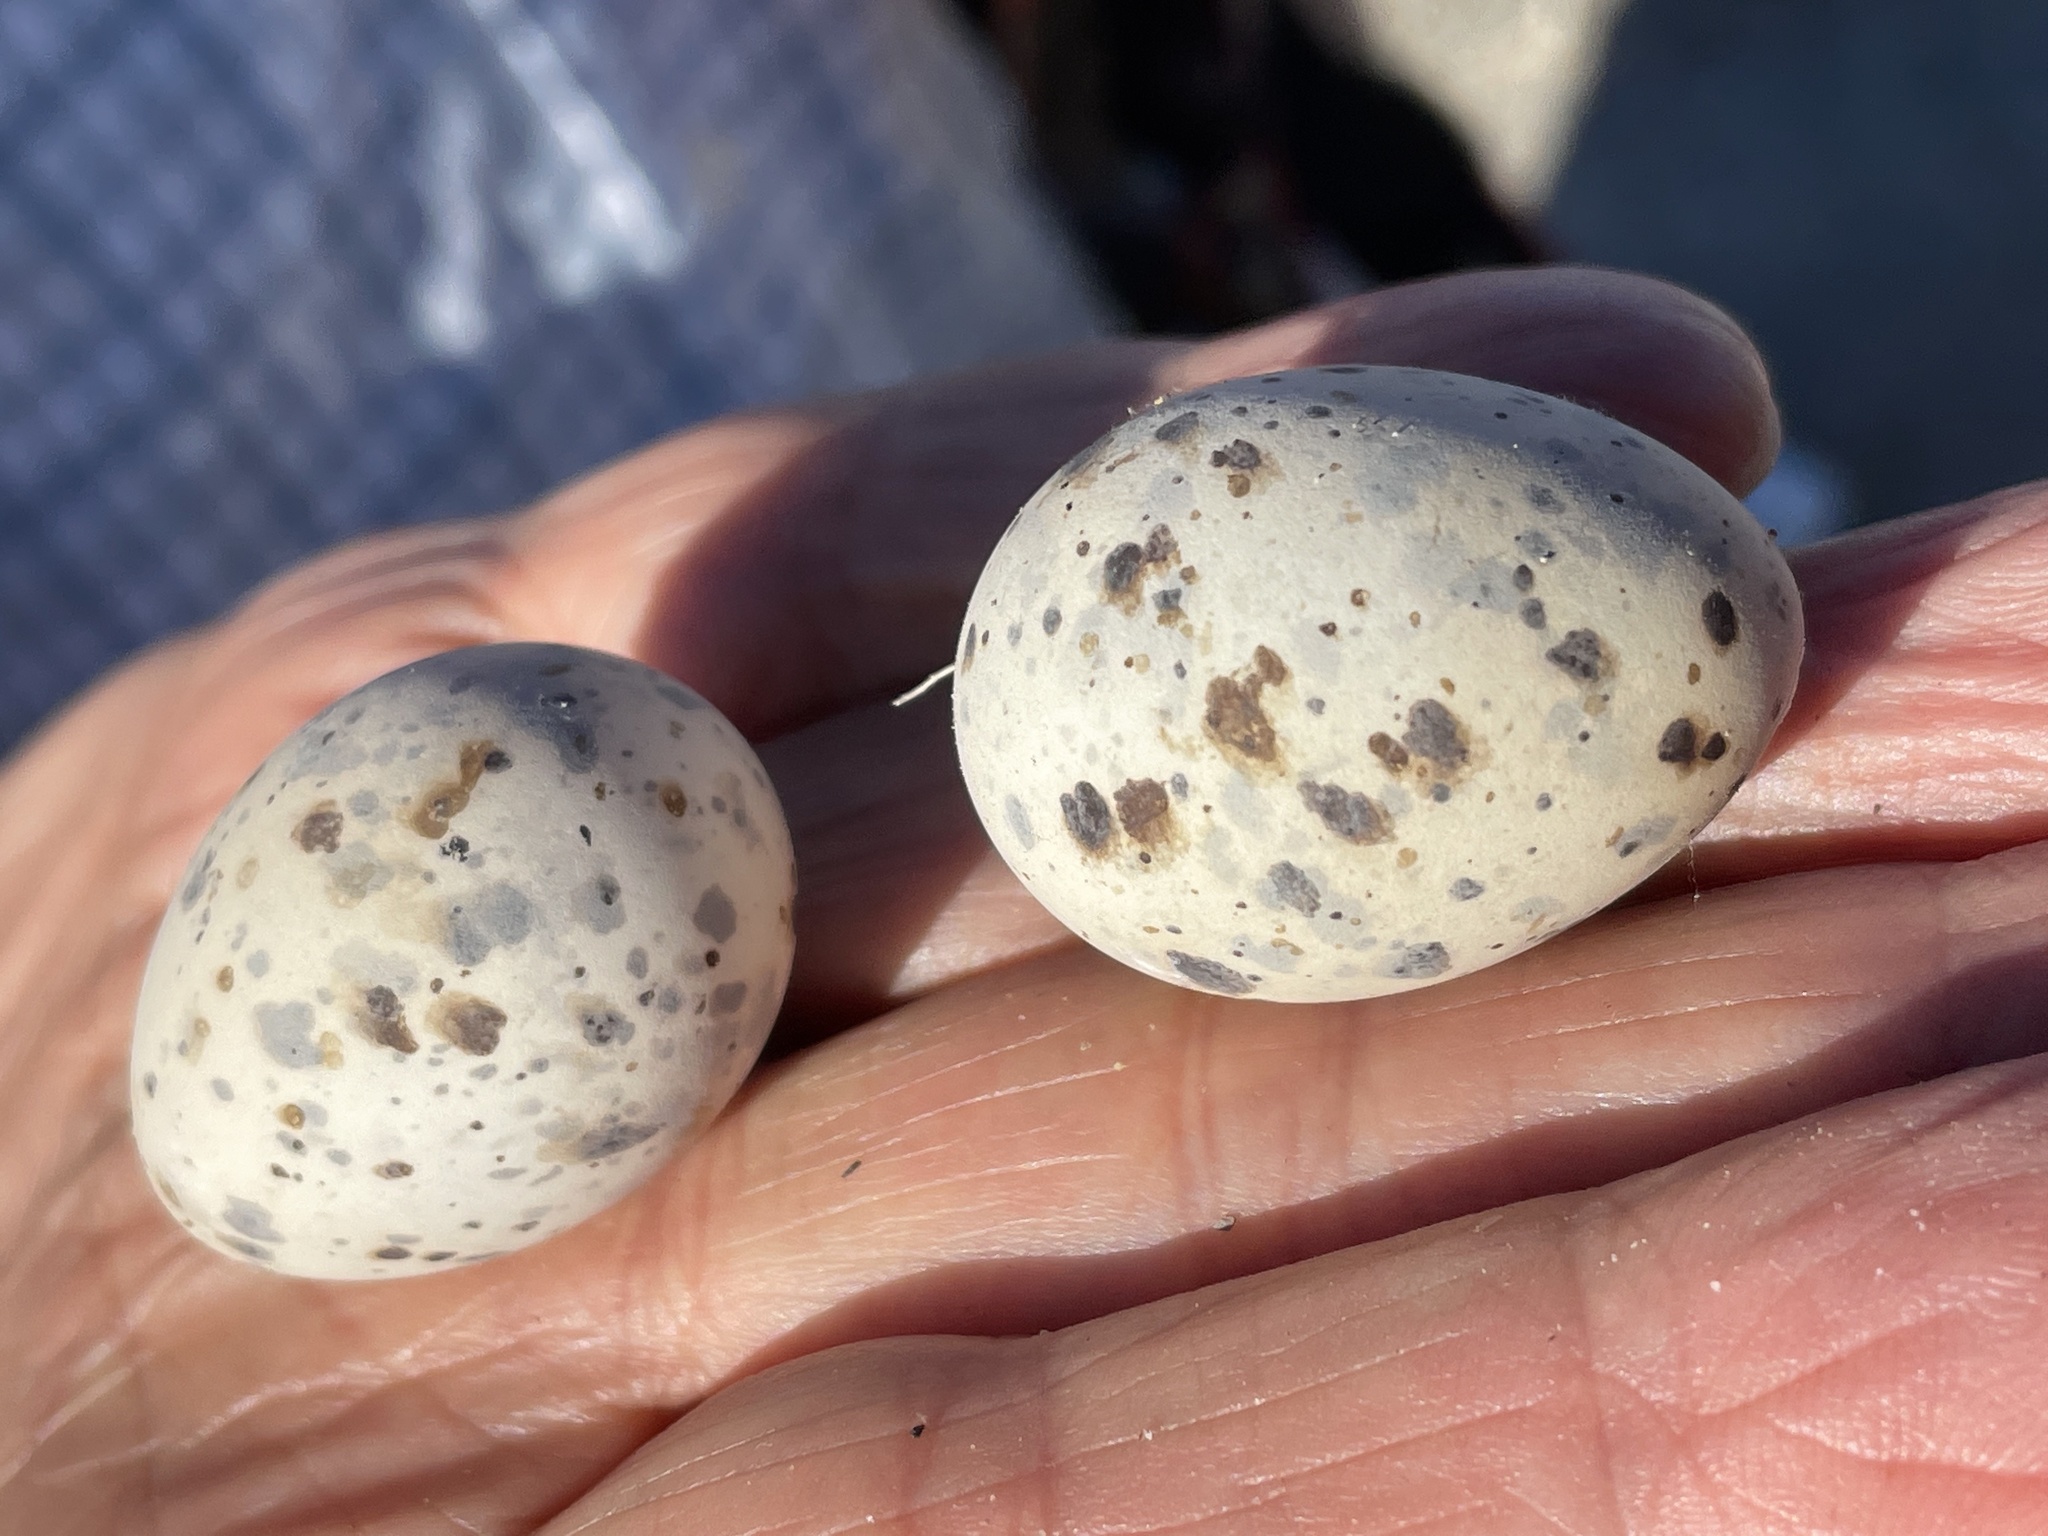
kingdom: Animalia
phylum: Chordata
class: Aves
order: Charadriiformes
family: Laridae
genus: Sternula
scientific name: Sternula antillarum
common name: Least tern
